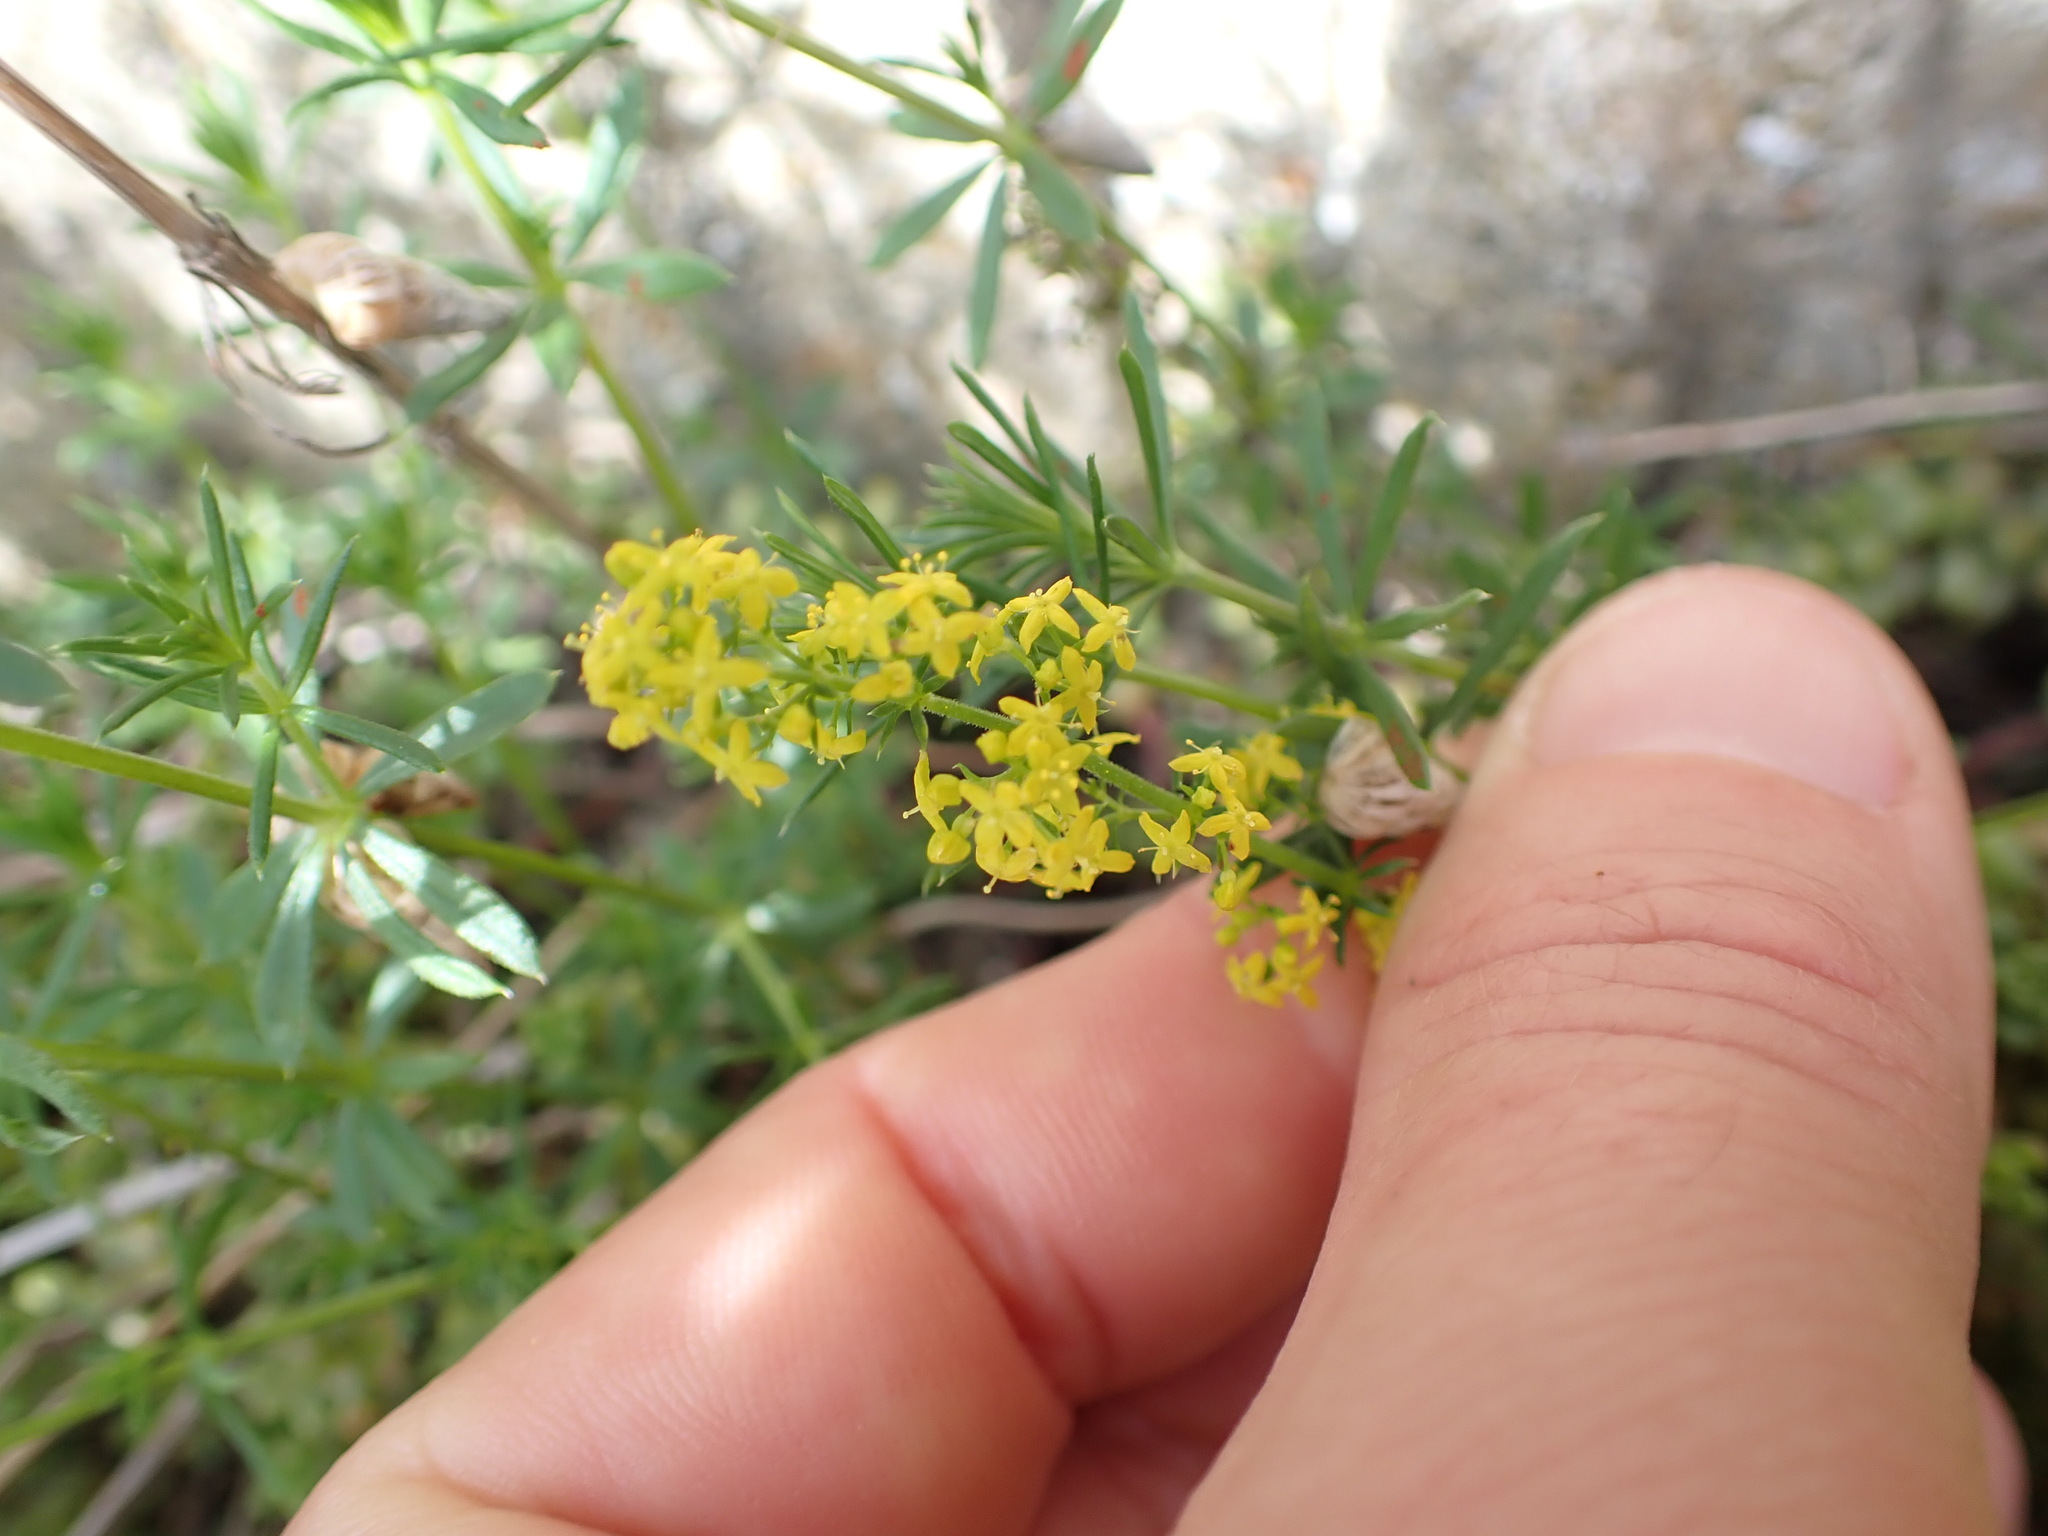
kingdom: Plantae
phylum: Tracheophyta
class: Magnoliopsida
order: Gentianales
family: Rubiaceae
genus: Galium
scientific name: Galium verum
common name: Lady's bedstraw
